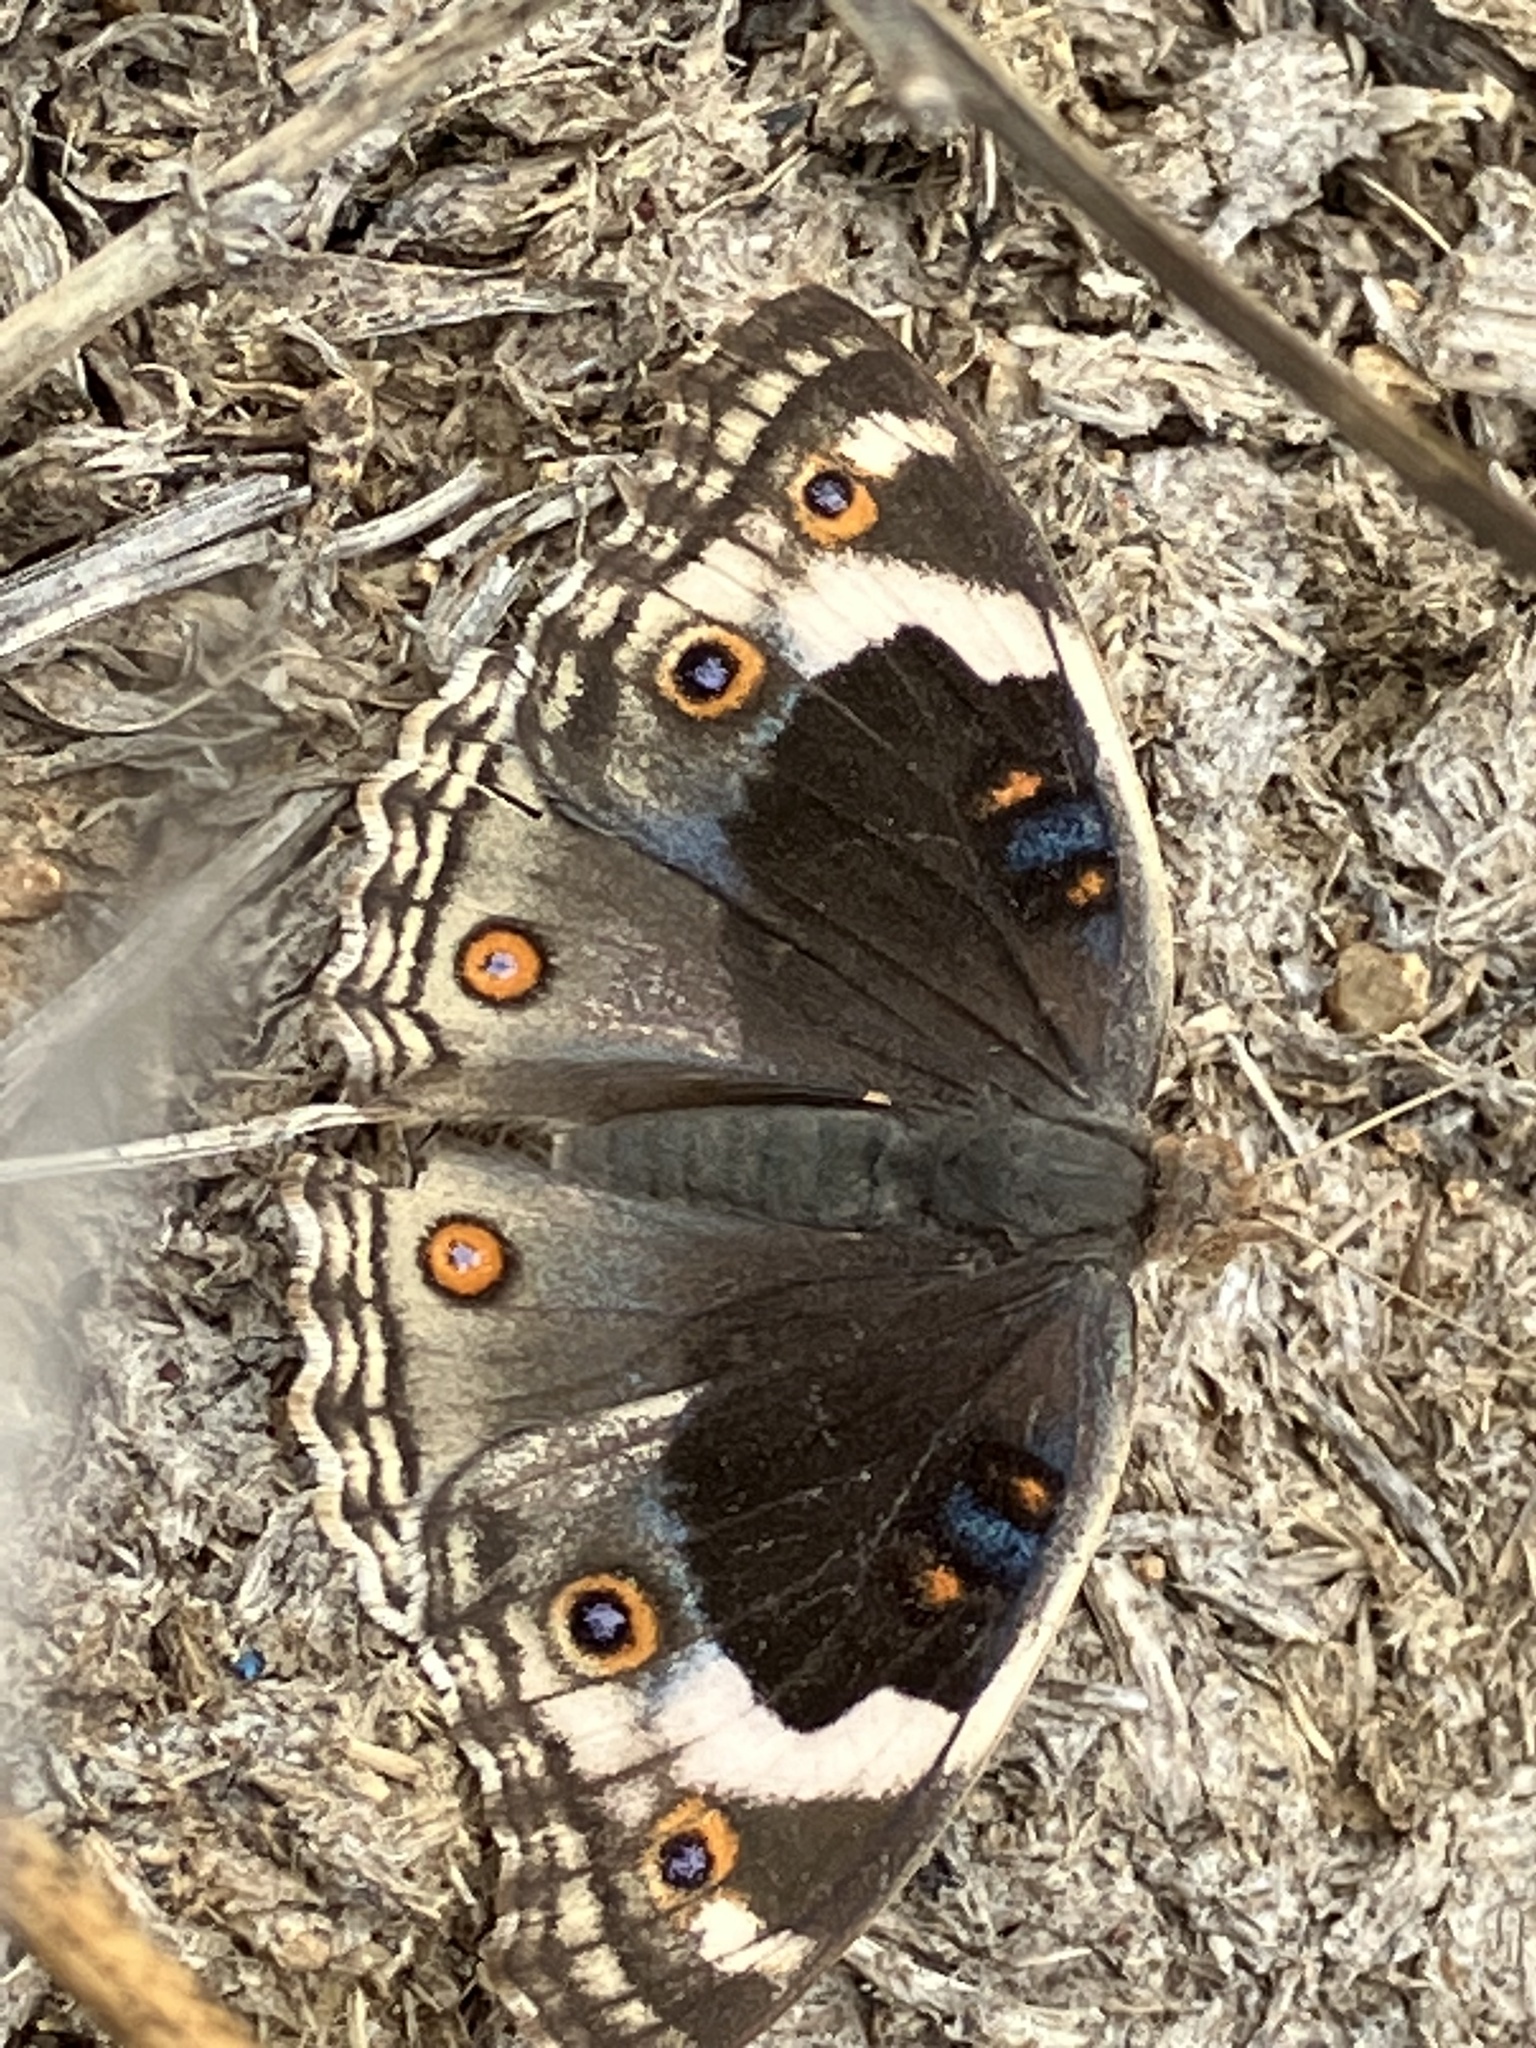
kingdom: Animalia
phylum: Arthropoda
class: Insecta
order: Lepidoptera
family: Nymphalidae
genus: Junonia
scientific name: Junonia orithya
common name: Blue pansy
